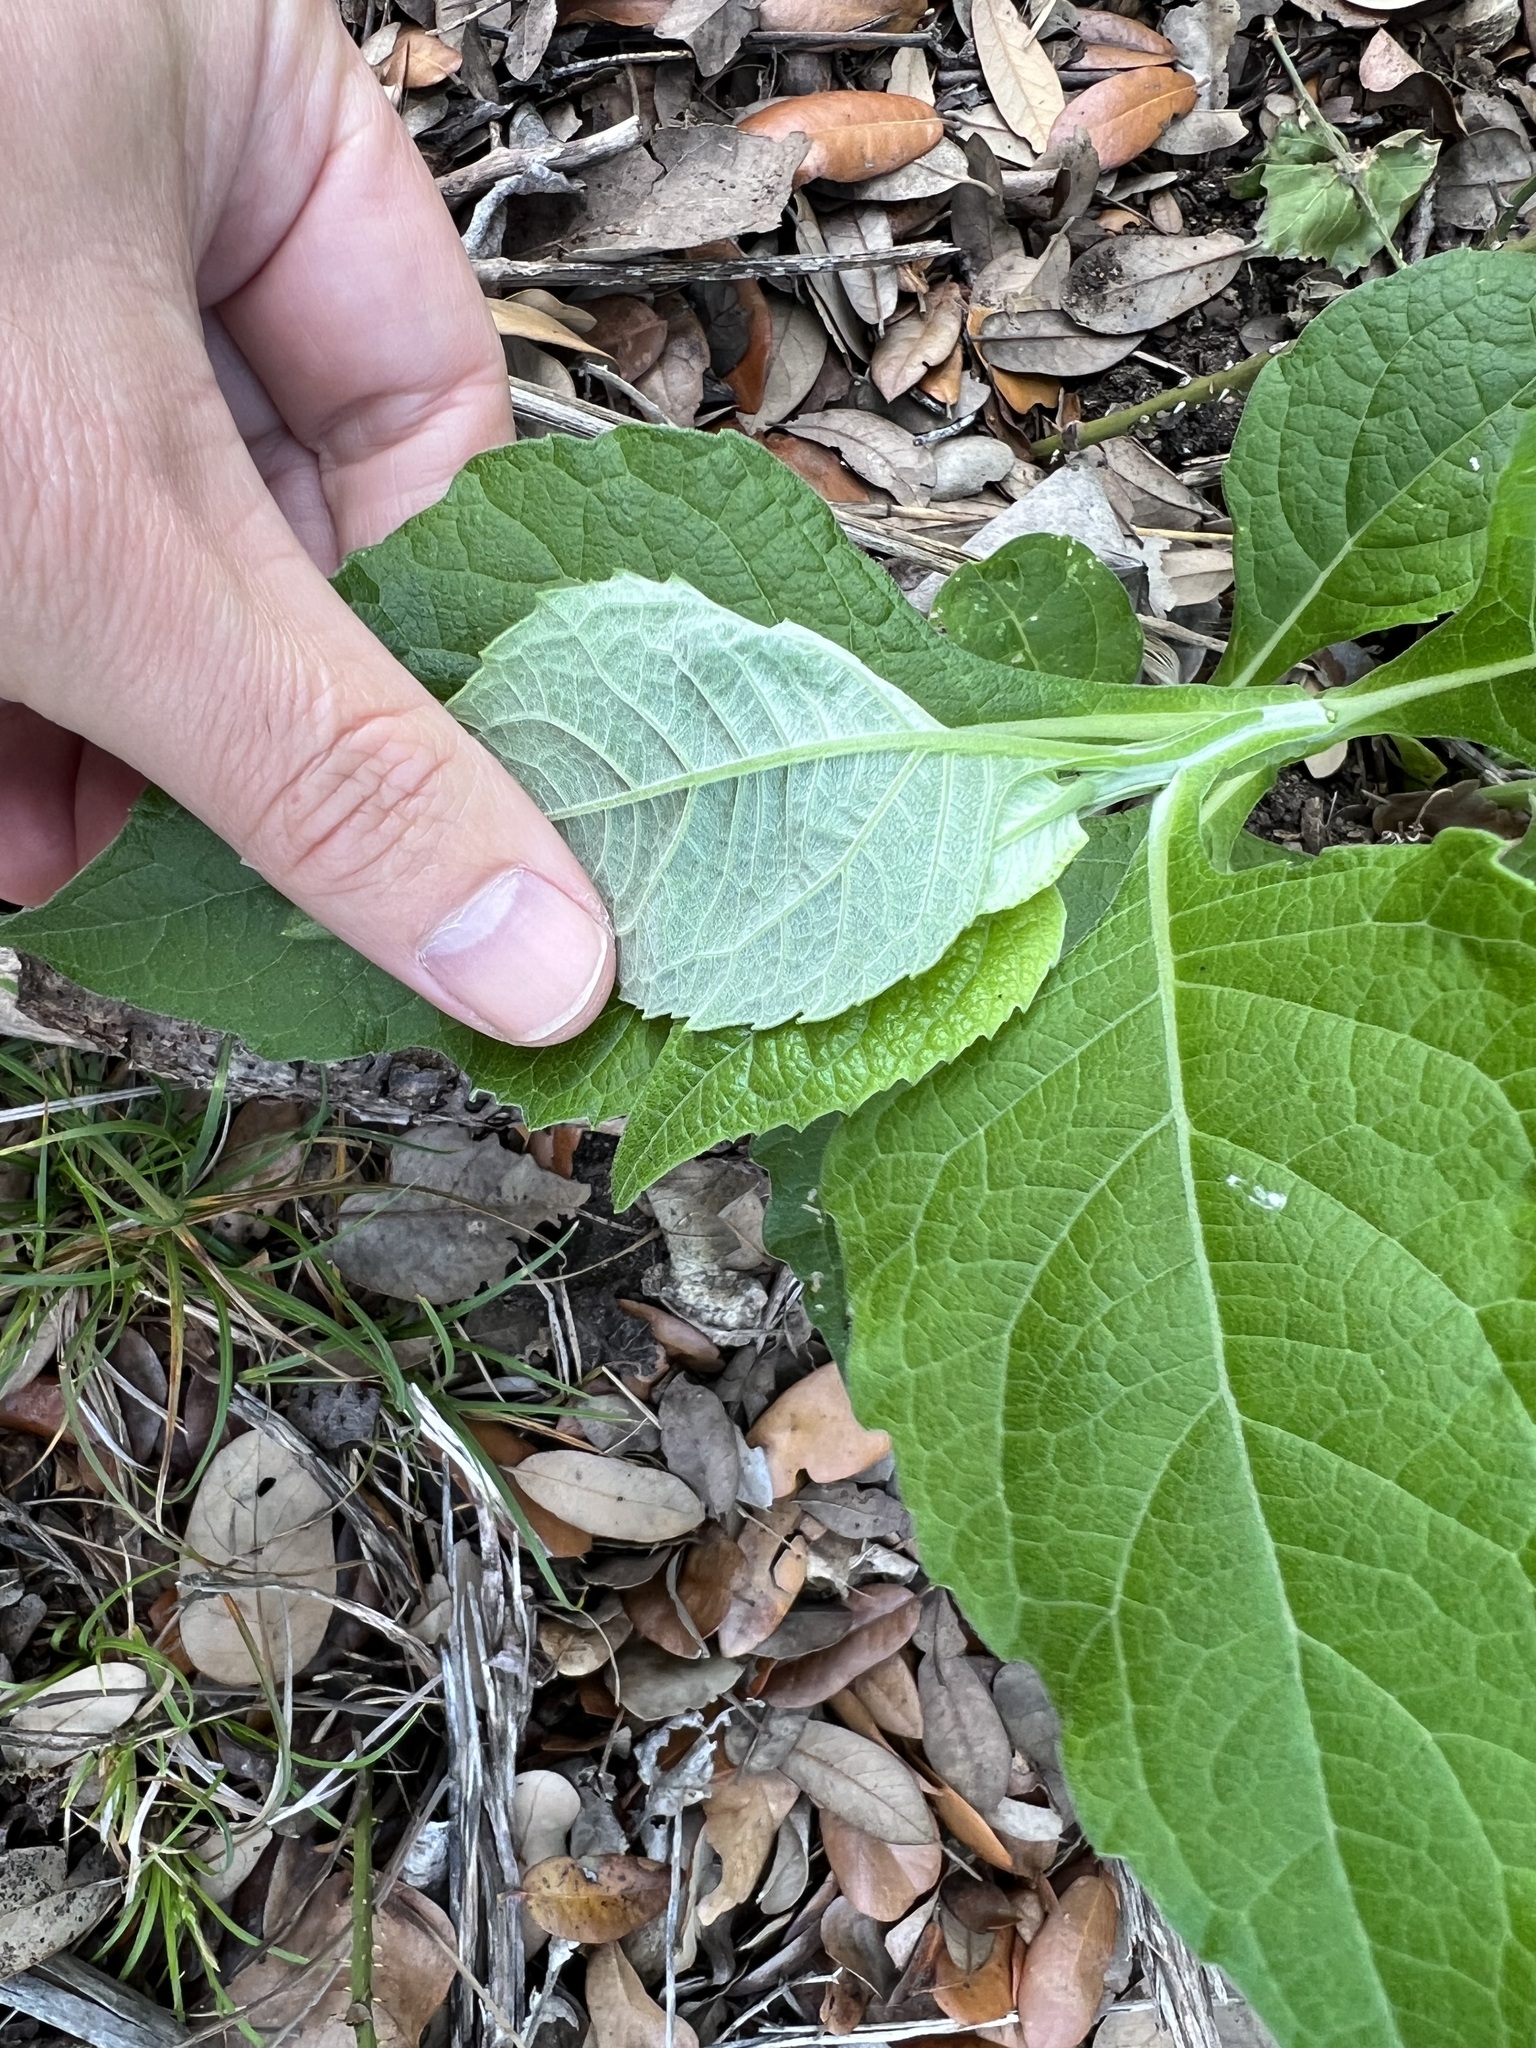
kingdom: Plantae
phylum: Tracheophyta
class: Magnoliopsida
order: Asterales
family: Asteraceae
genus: Verbesina
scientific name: Verbesina virginica
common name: Frostweed
